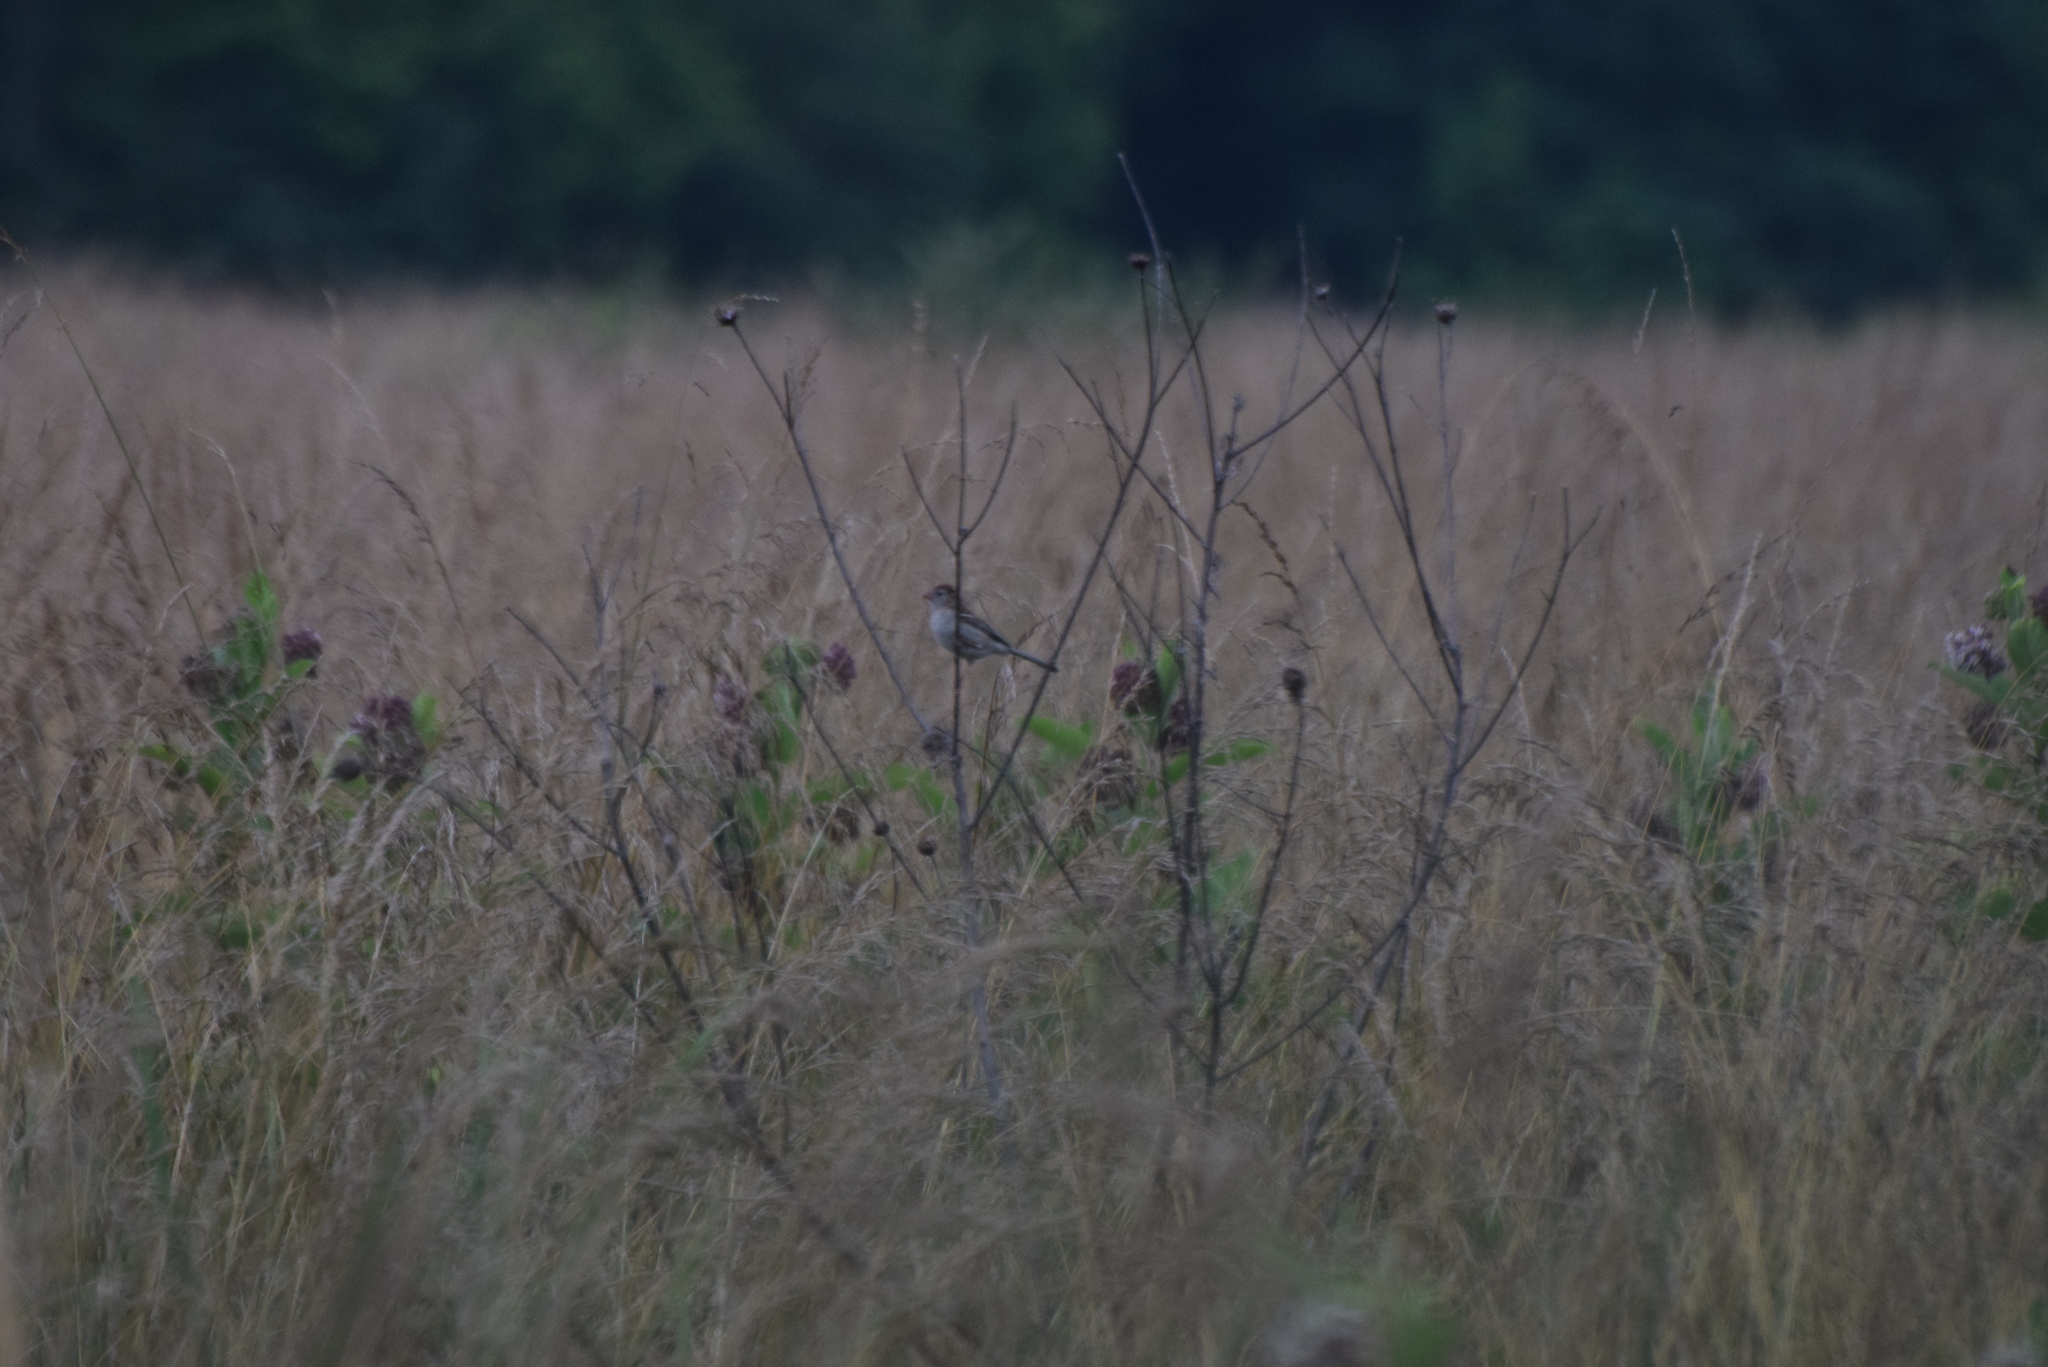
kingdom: Animalia
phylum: Chordata
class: Aves
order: Passeriformes
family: Passerellidae
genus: Spizella
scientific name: Spizella pusilla
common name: Field sparrow
